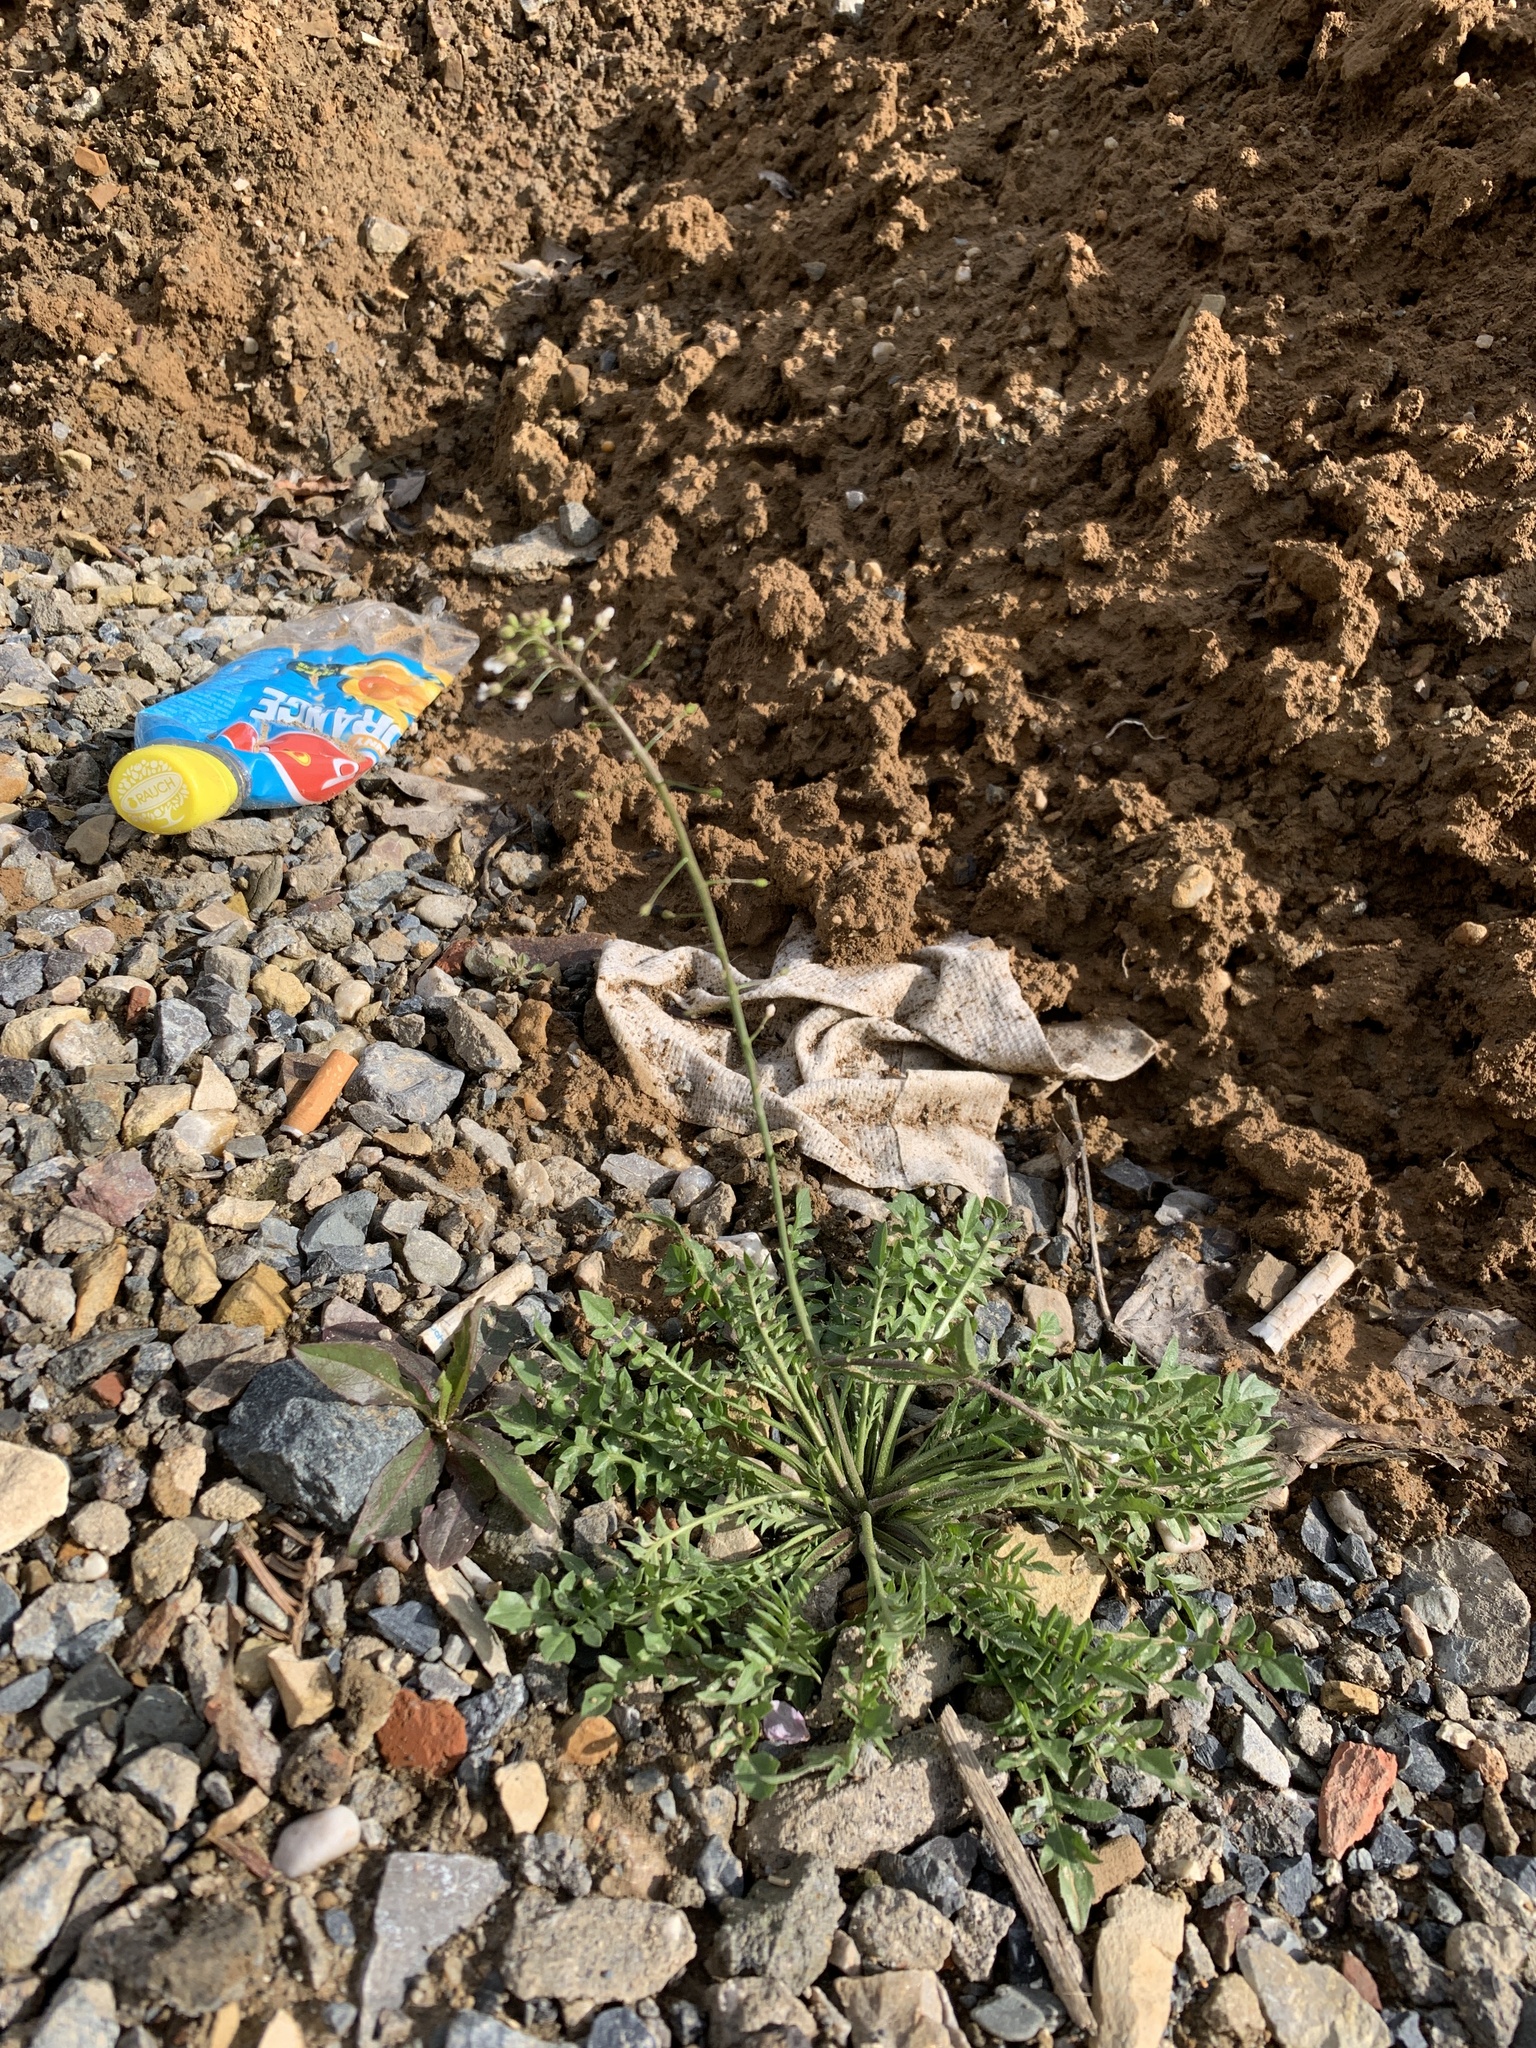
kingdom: Plantae
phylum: Tracheophyta
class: Magnoliopsida
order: Brassicales
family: Brassicaceae
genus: Capsella
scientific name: Capsella bursa-pastoris
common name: Shepherd's purse
